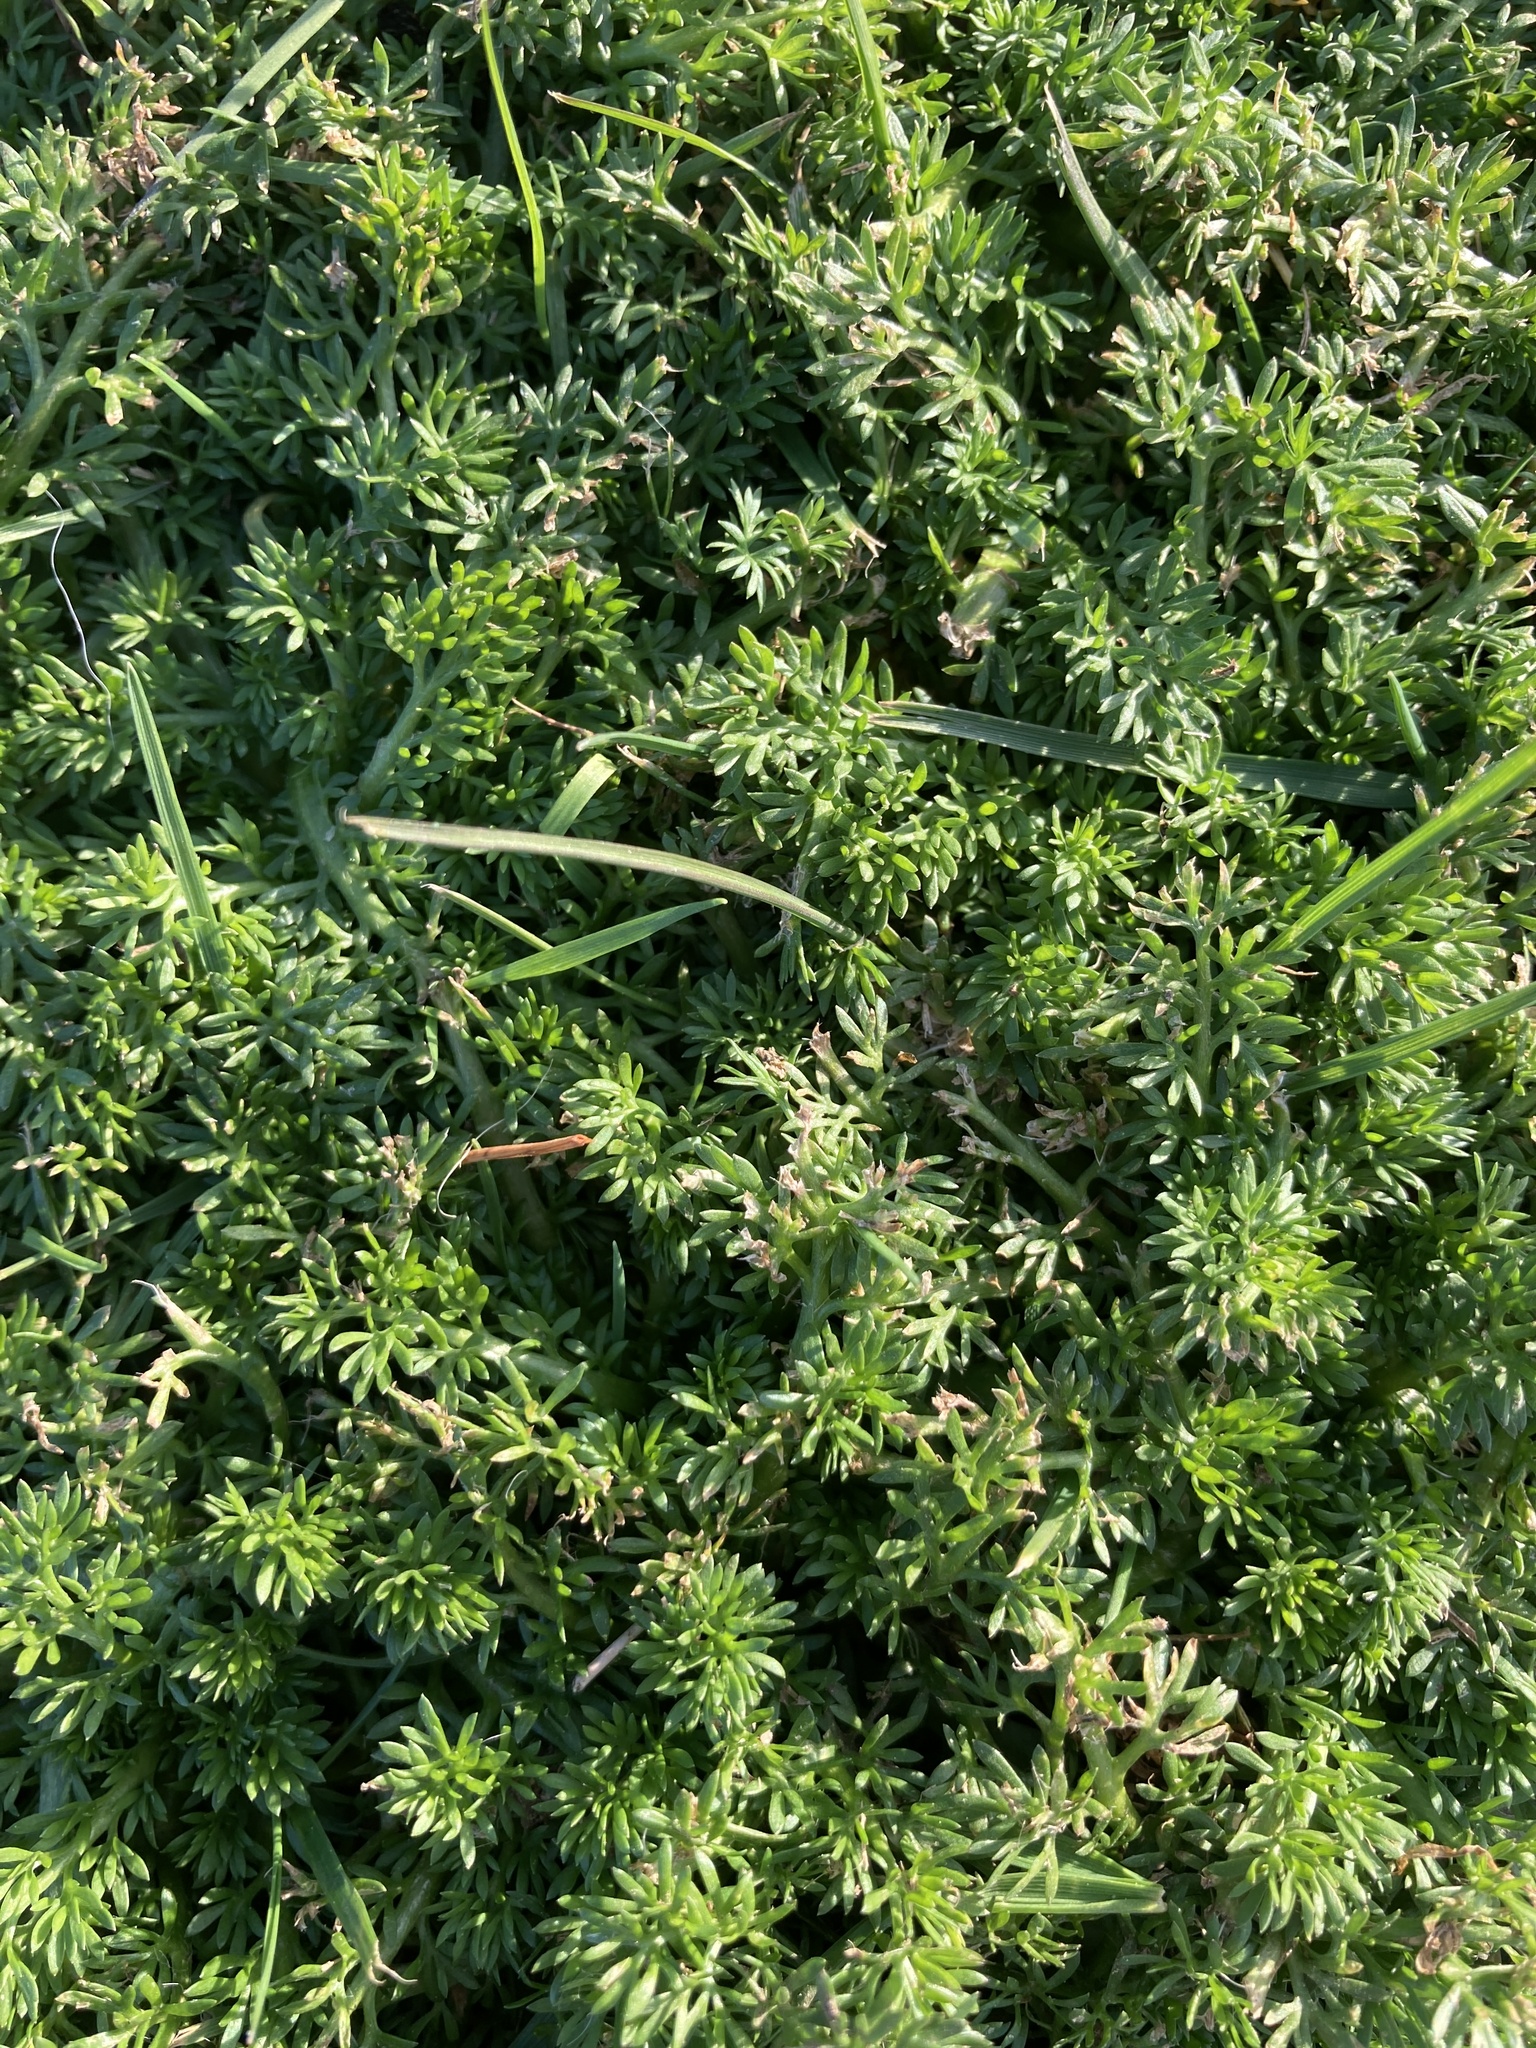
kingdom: Plantae
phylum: Tracheophyta
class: Magnoliopsida
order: Asterales
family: Asteraceae
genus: Soliva
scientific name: Soliva sessilis
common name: Field burrweed
